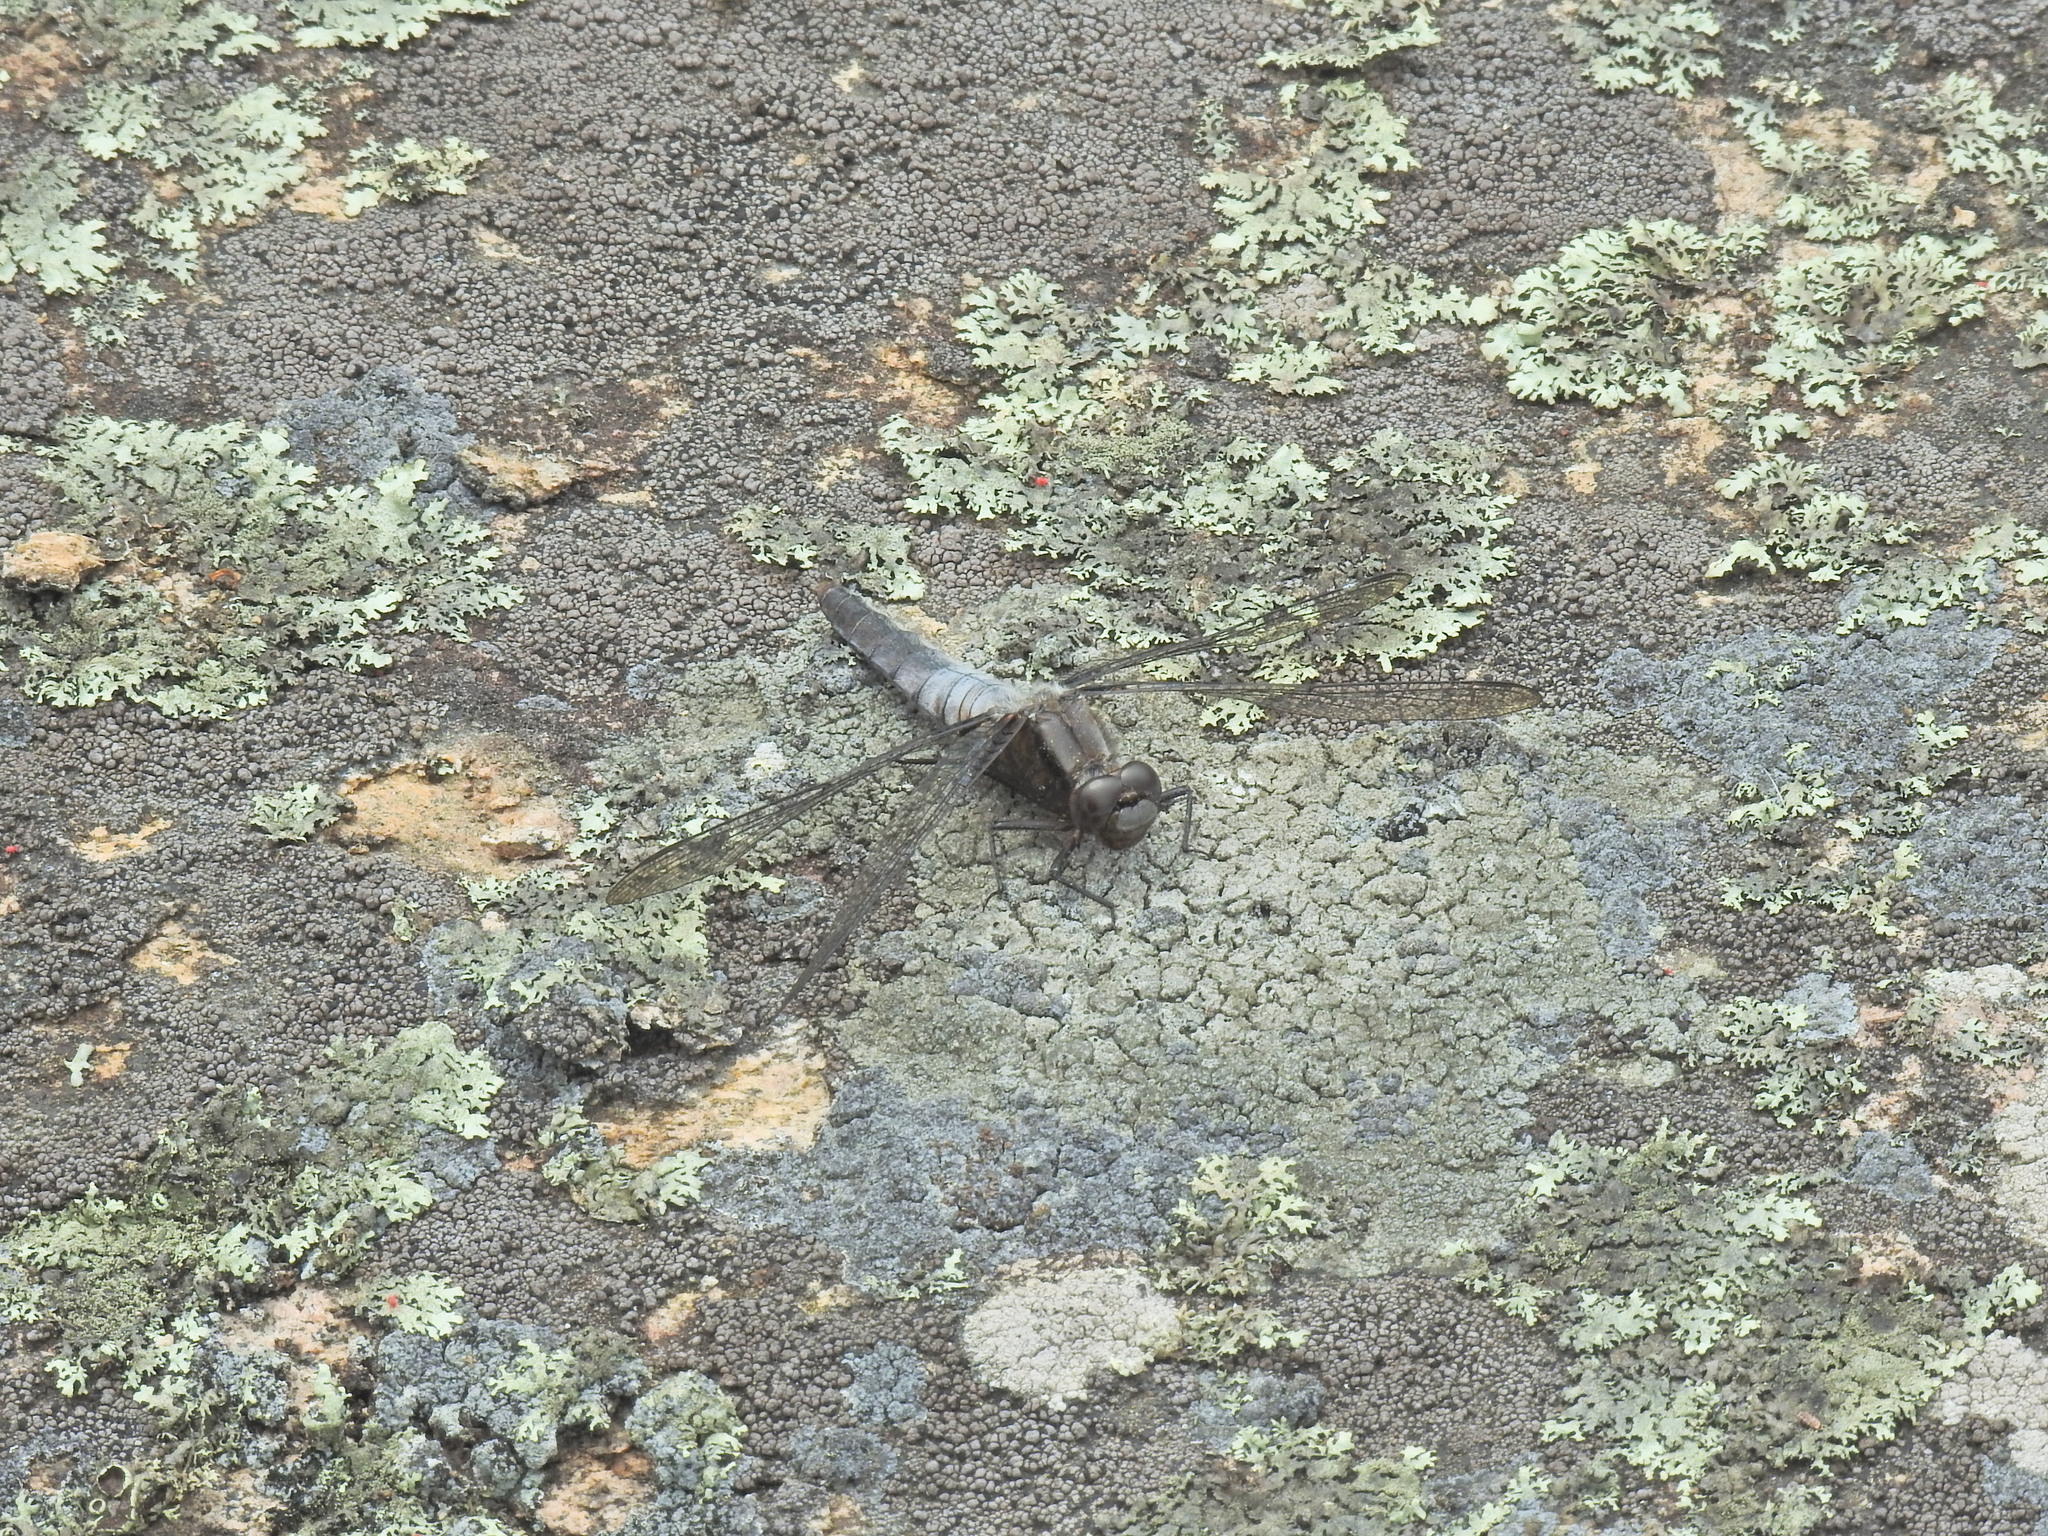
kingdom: Animalia
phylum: Arthropoda
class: Insecta
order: Odonata
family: Libellulidae
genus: Ladona
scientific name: Ladona julia
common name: Chalk-fronted corporal
